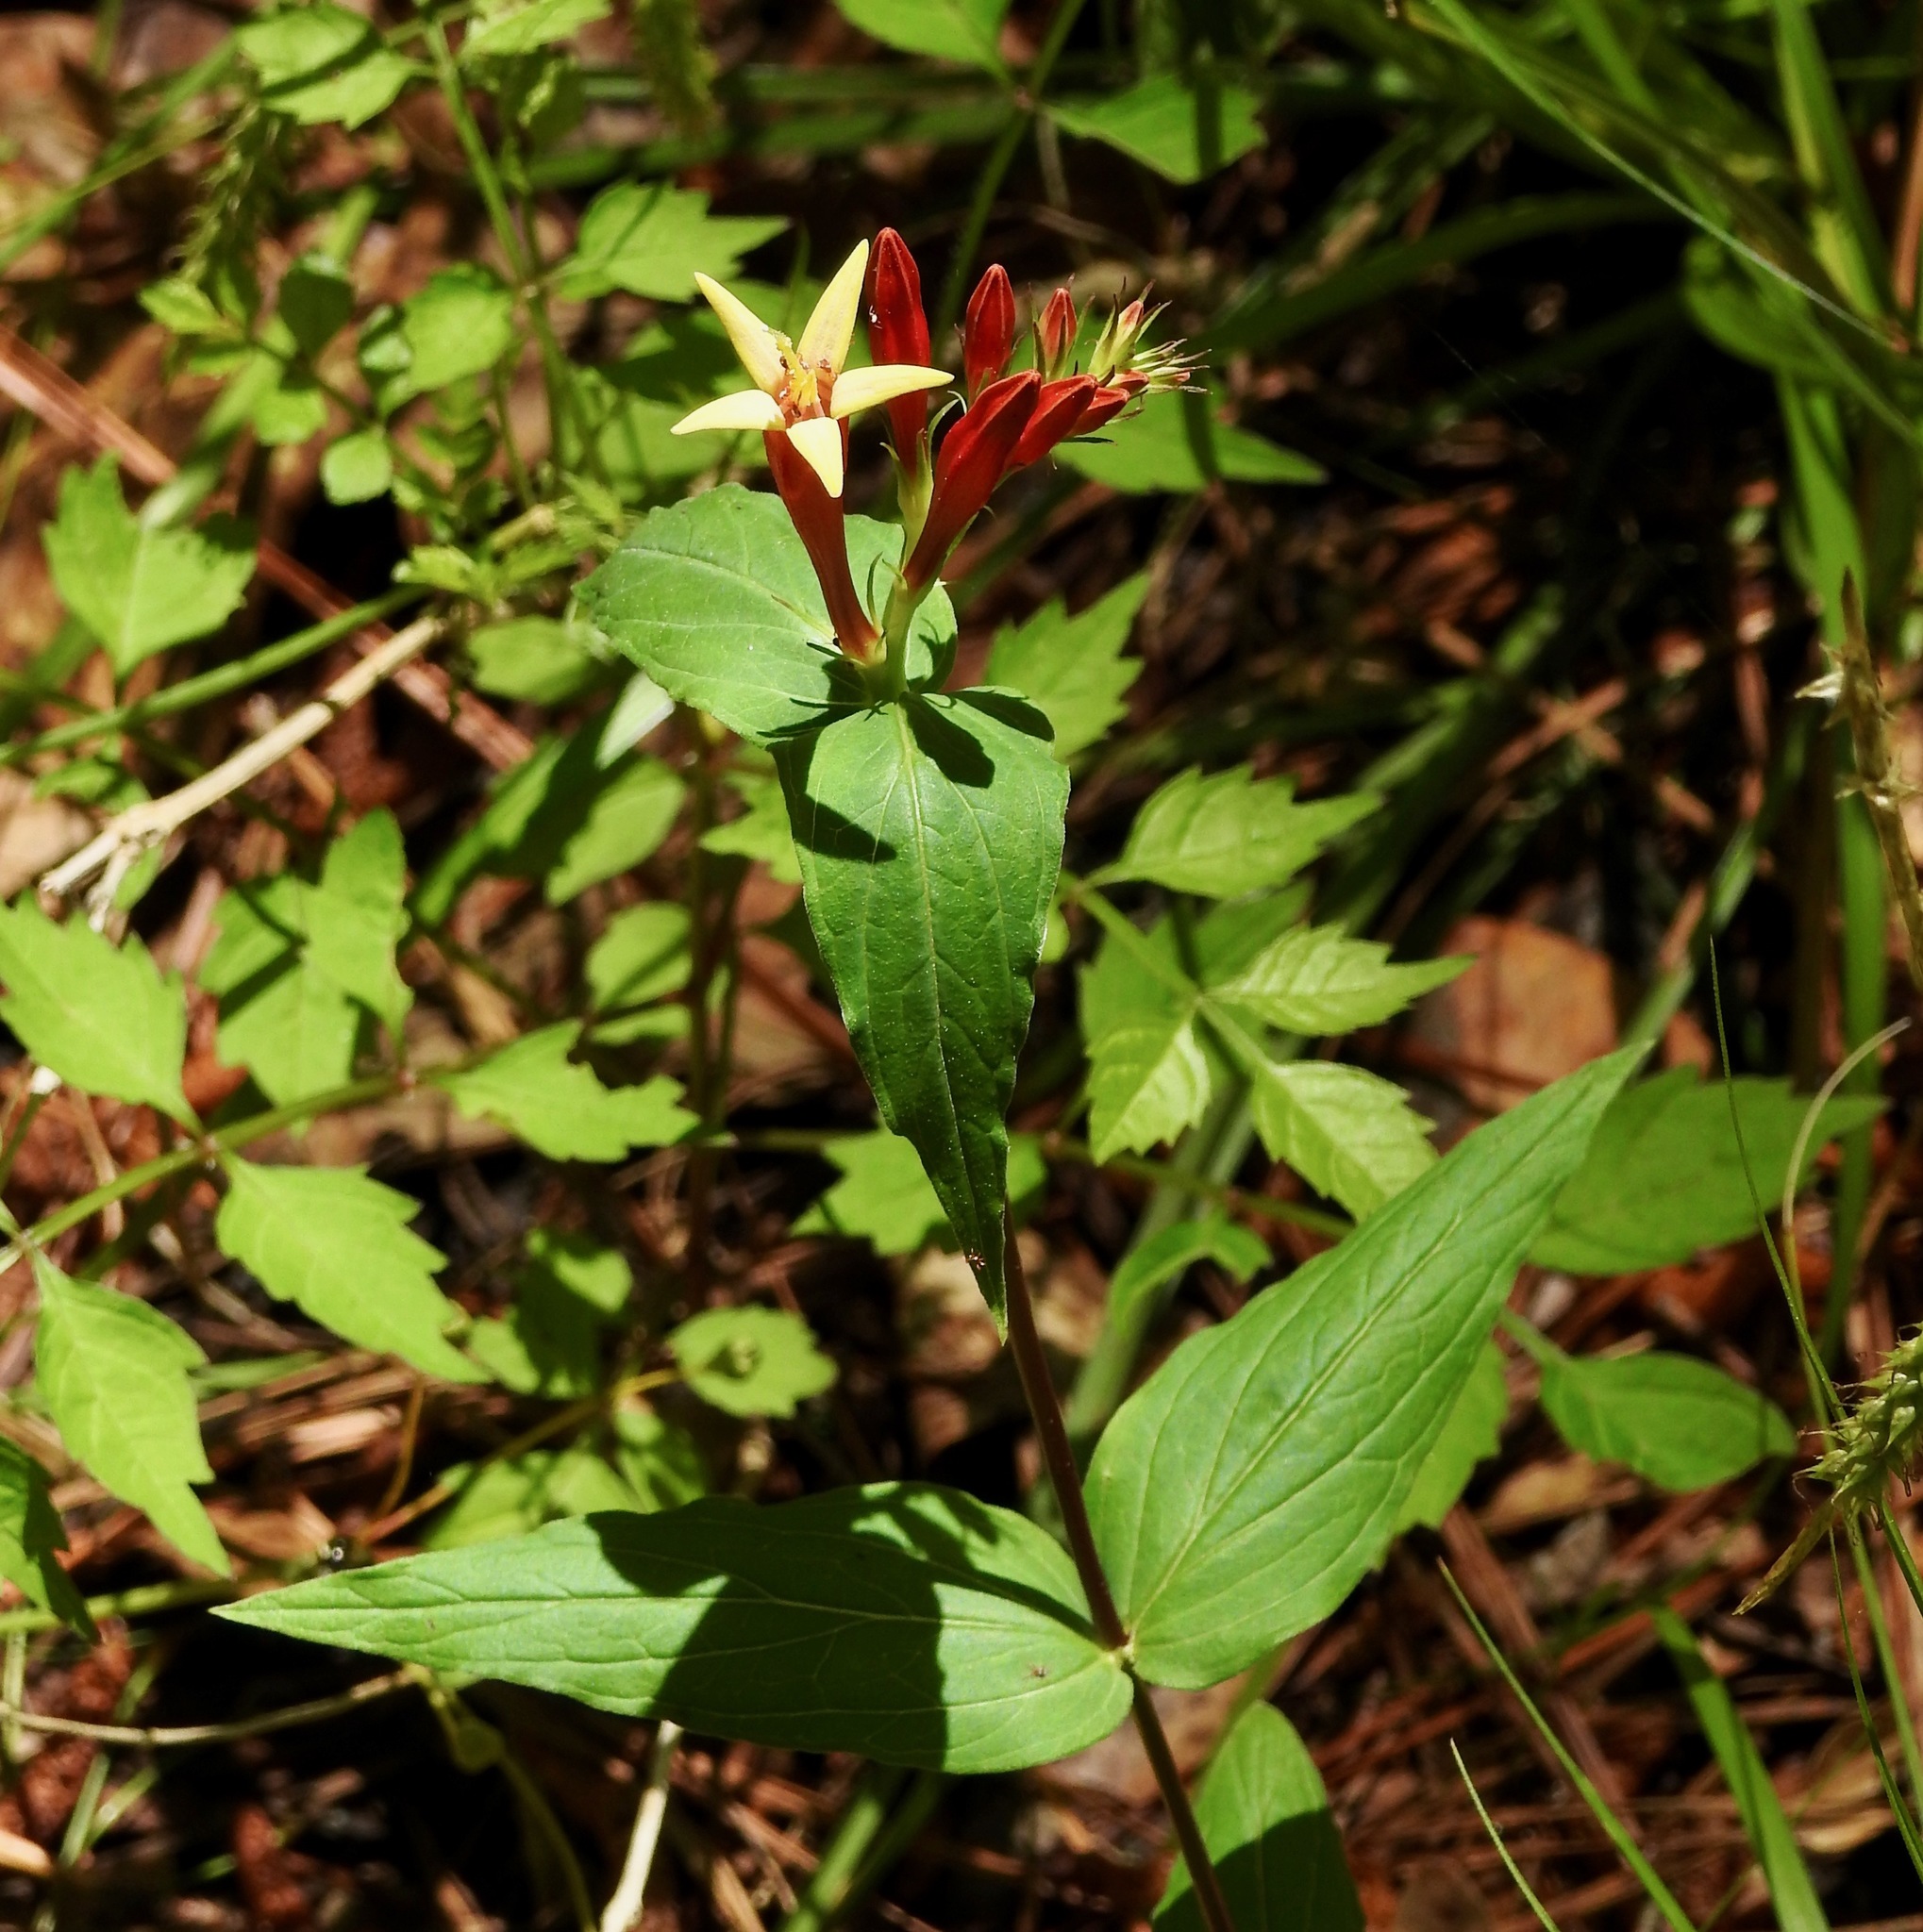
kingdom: Plantae
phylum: Tracheophyta
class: Magnoliopsida
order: Gentianales
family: Loganiaceae
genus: Spigelia
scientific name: Spigelia marilandica
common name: Indian-pink
